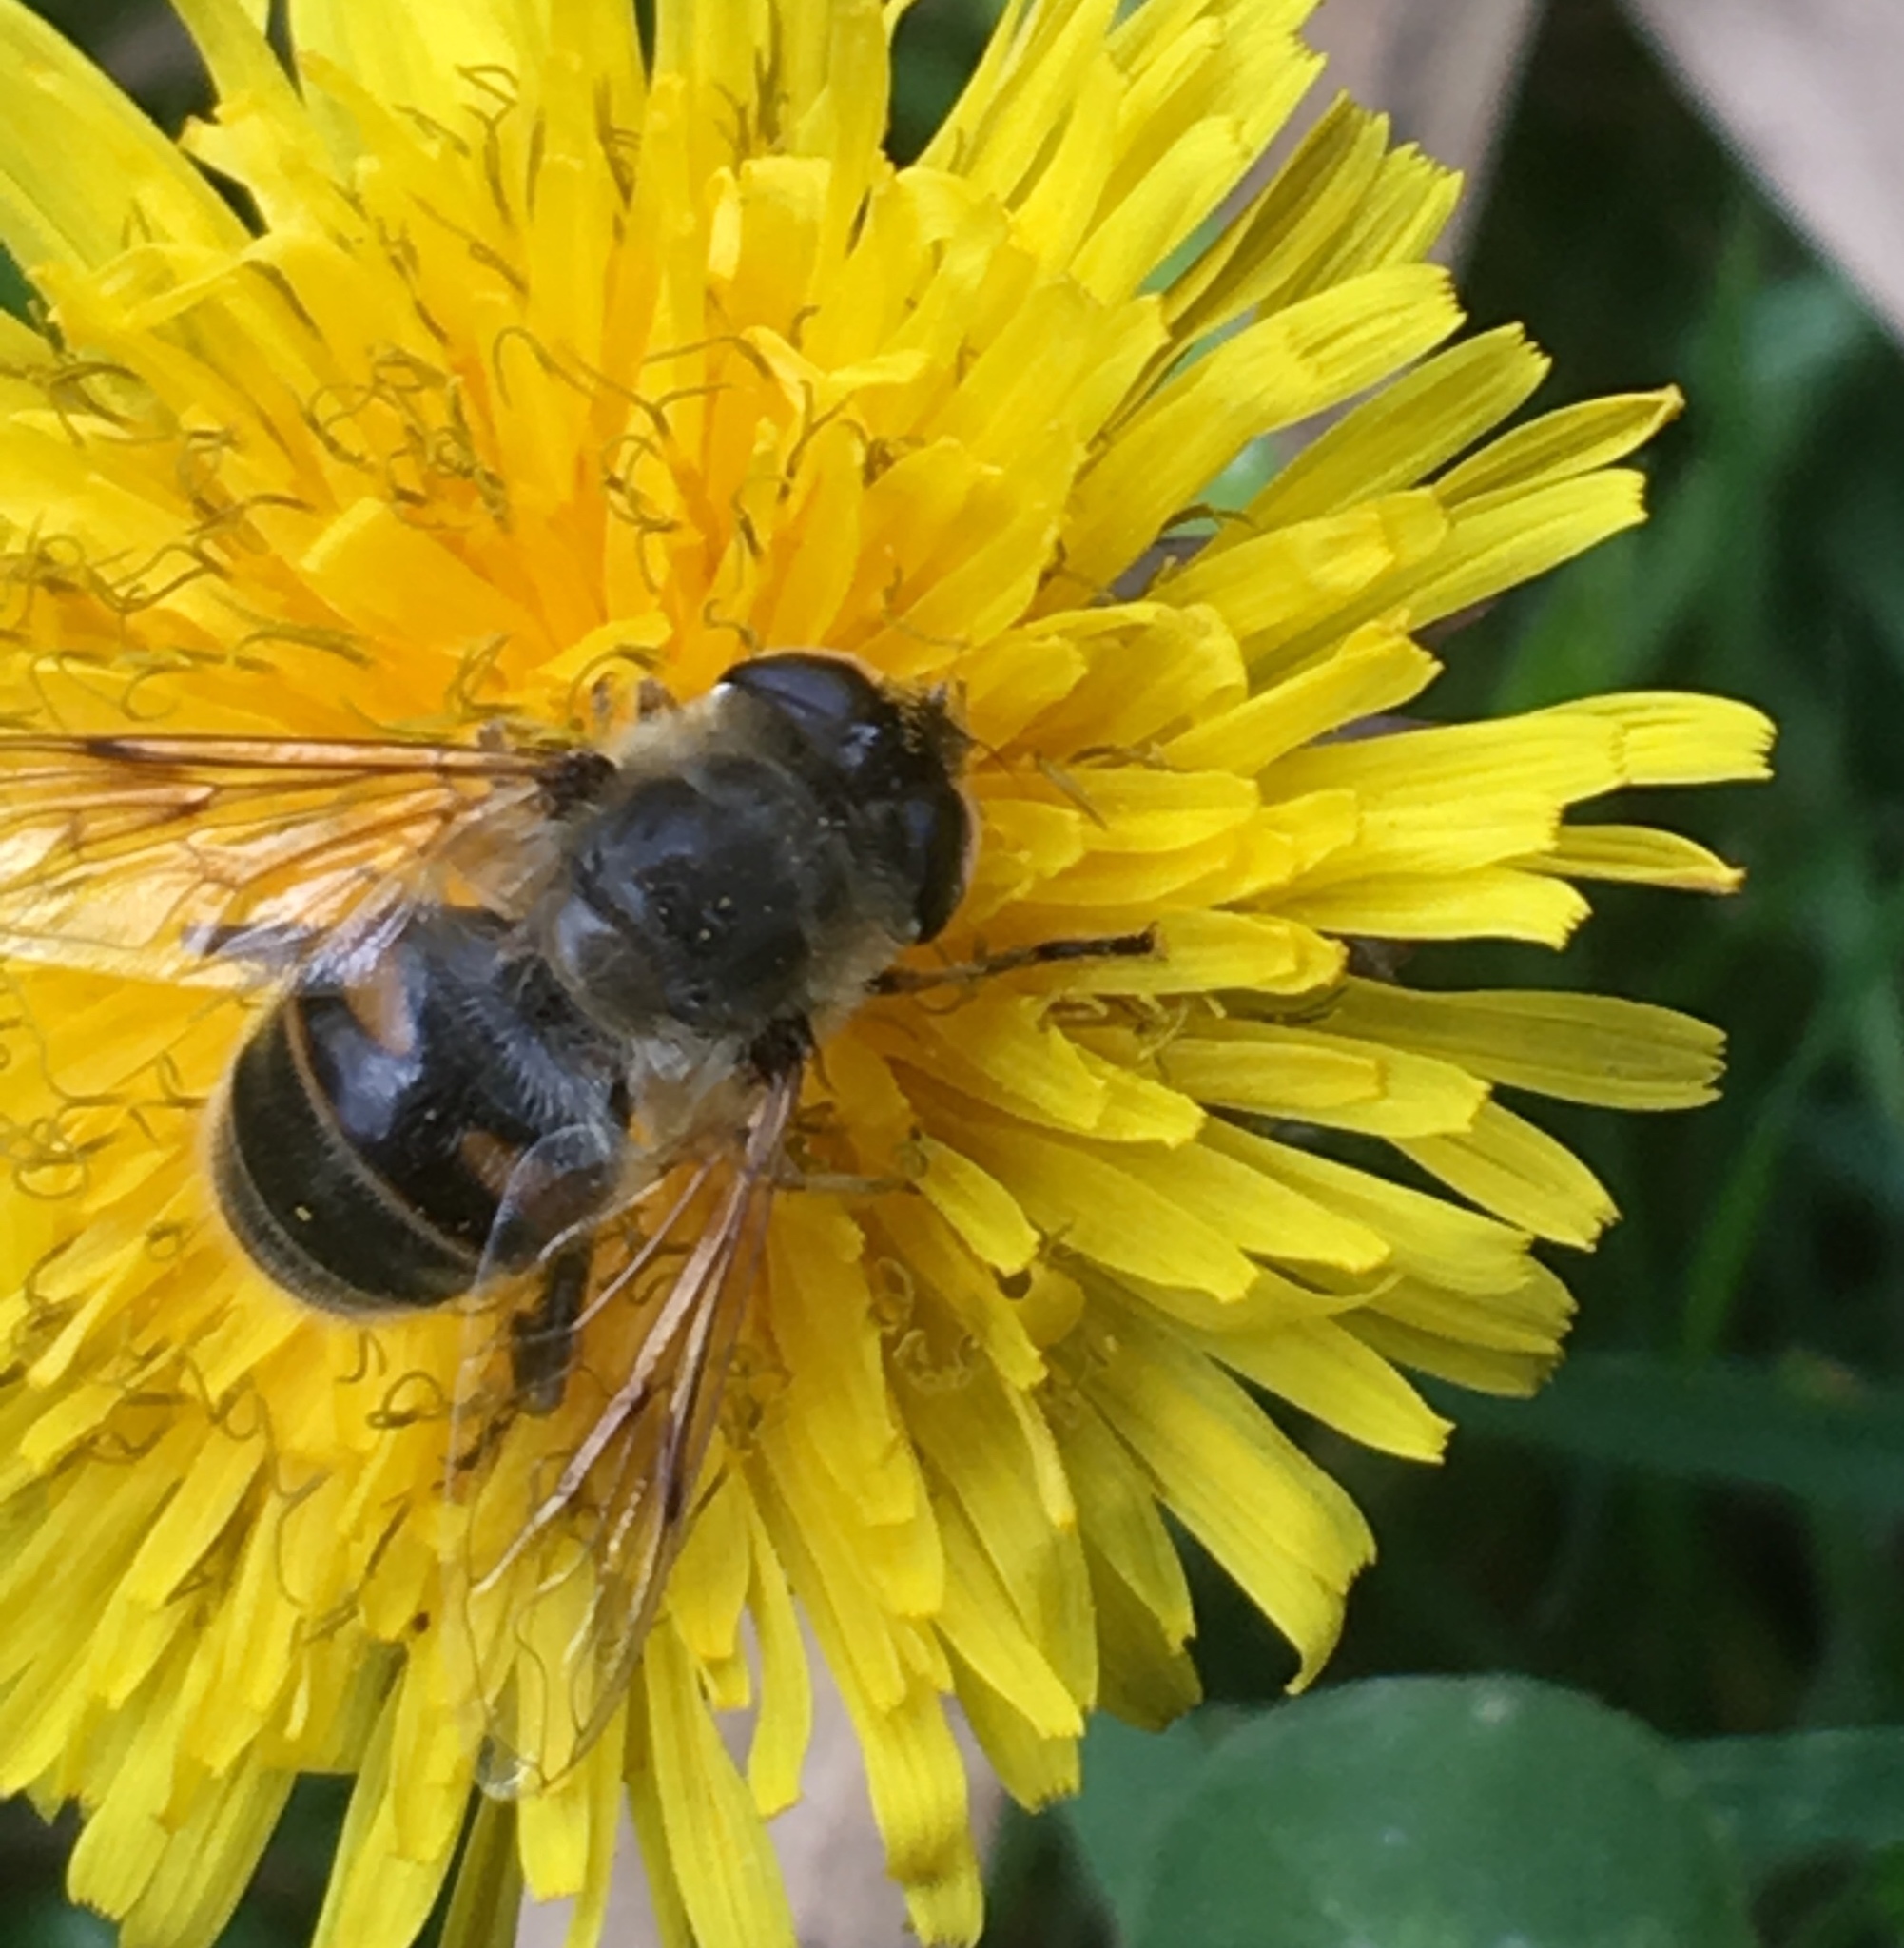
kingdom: Animalia
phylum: Arthropoda
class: Insecta
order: Diptera
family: Syrphidae
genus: Eristalis
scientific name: Eristalis tenax
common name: Drone fly
